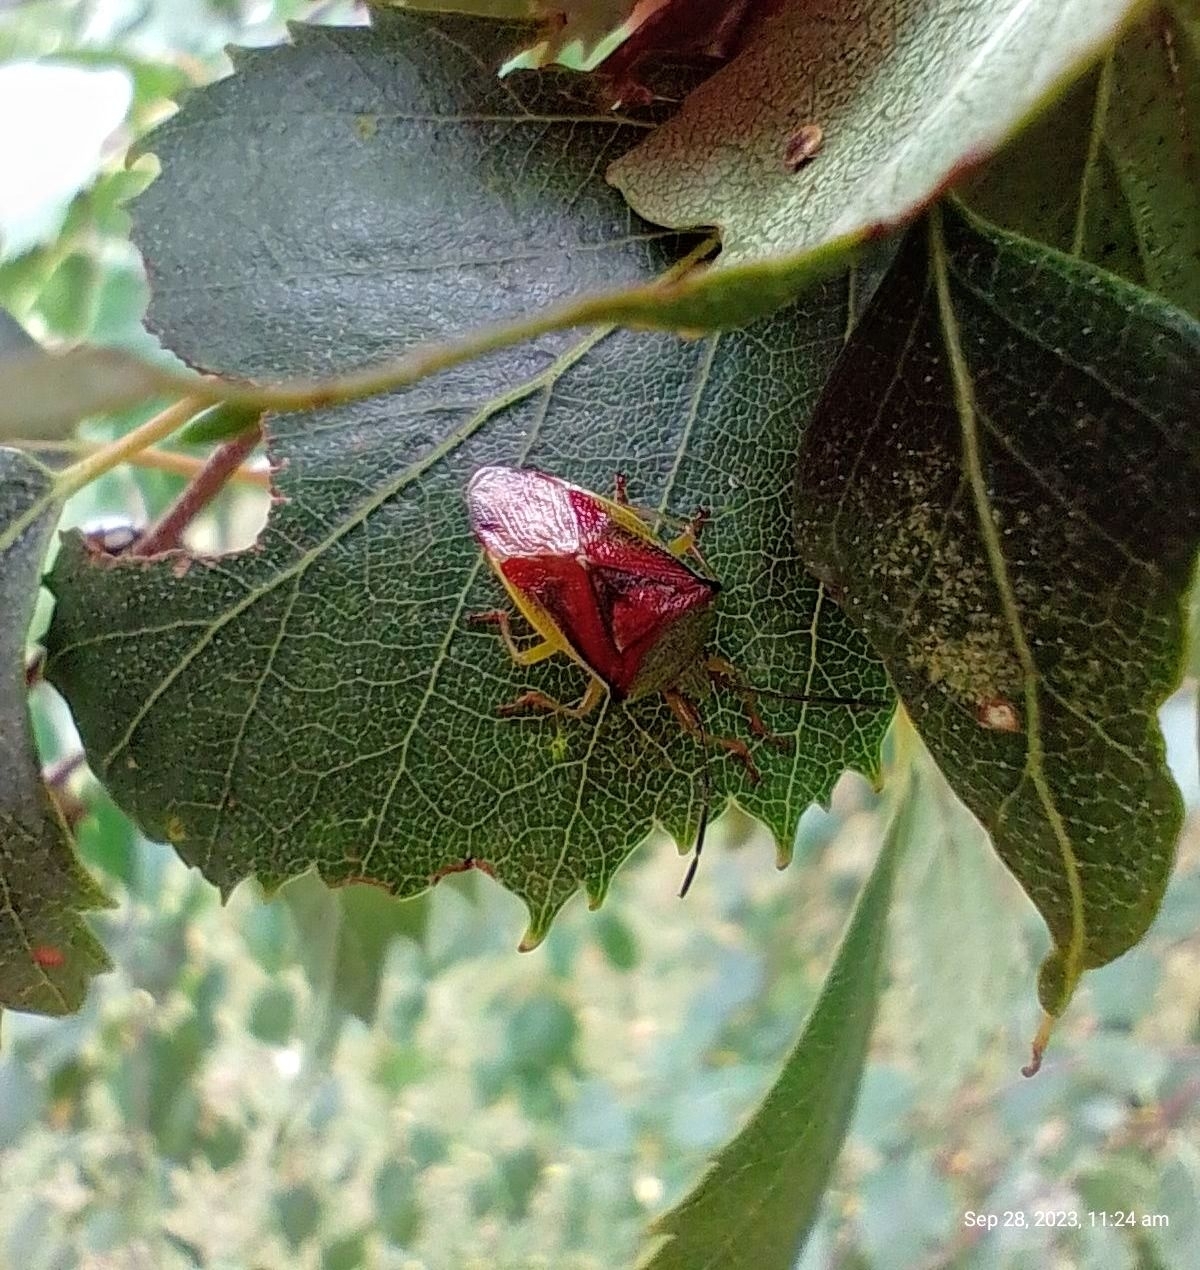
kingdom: Animalia
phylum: Arthropoda
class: Insecta
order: Hemiptera
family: Acanthosomatidae
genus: Elasmostethus
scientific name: Elasmostethus interstinctus
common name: Birch shieldbug
